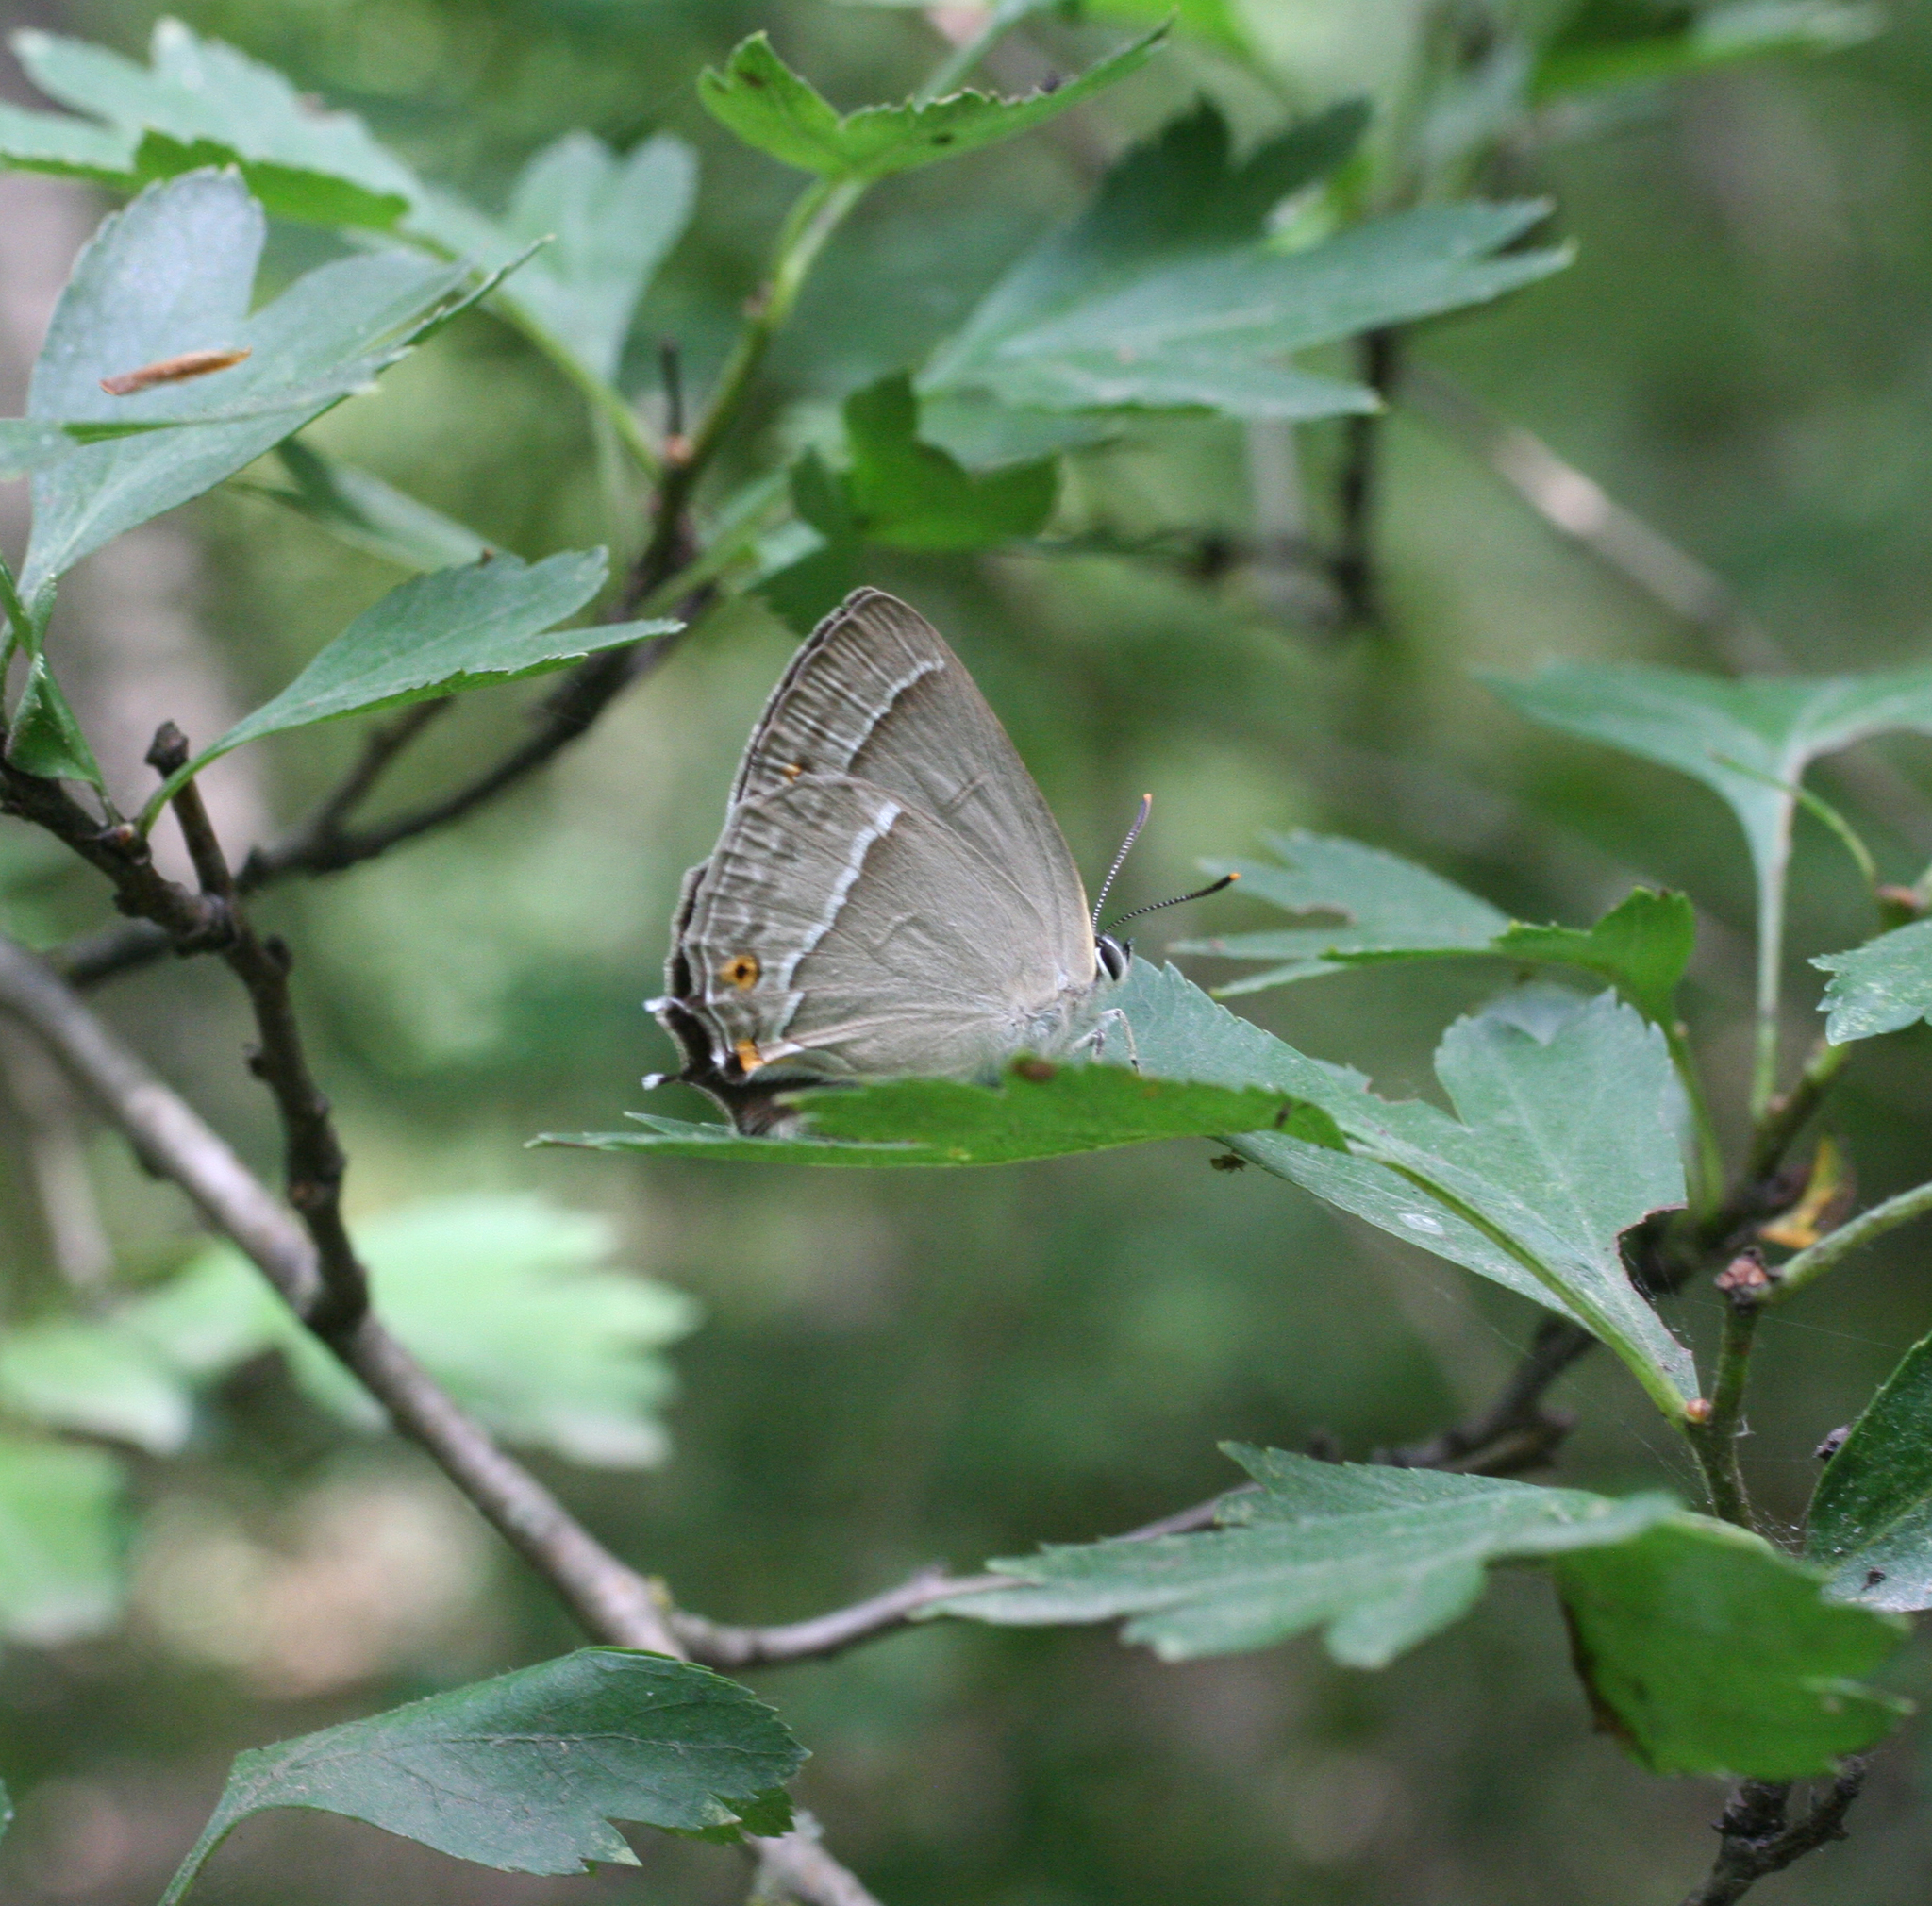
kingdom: Animalia
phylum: Arthropoda
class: Insecta
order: Lepidoptera
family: Lycaenidae
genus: Quercusia
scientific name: Quercusia quercus
